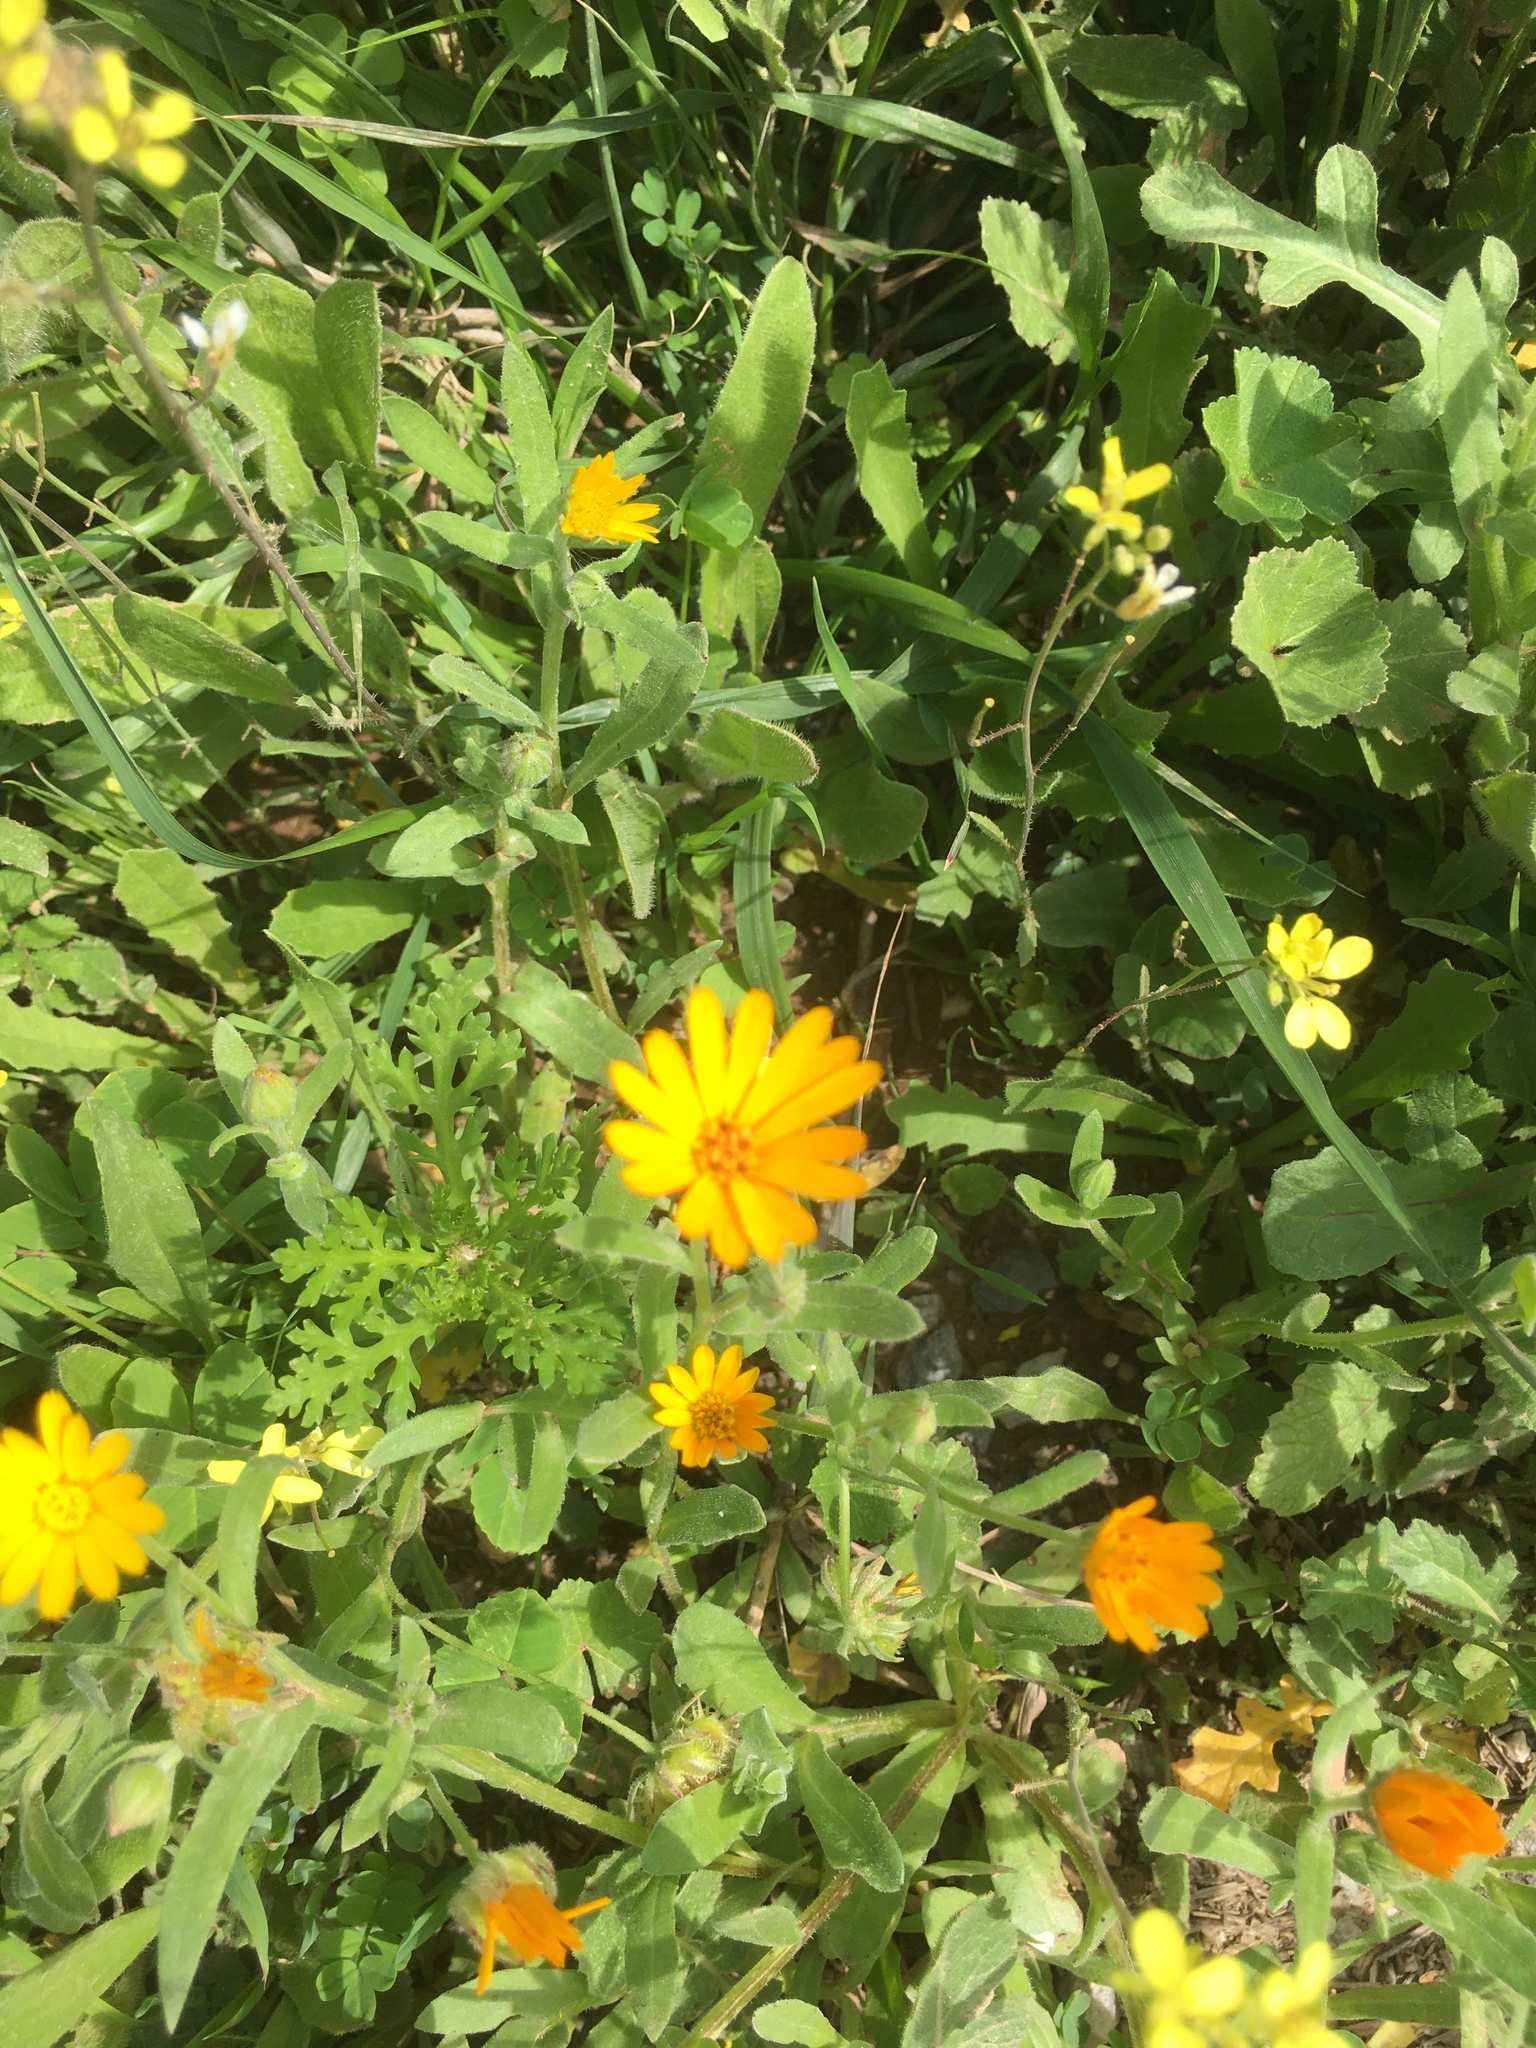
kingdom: Plantae
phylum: Tracheophyta
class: Magnoliopsida
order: Asterales
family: Asteraceae
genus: Calendula
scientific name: Calendula arvensis
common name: Field marigold
